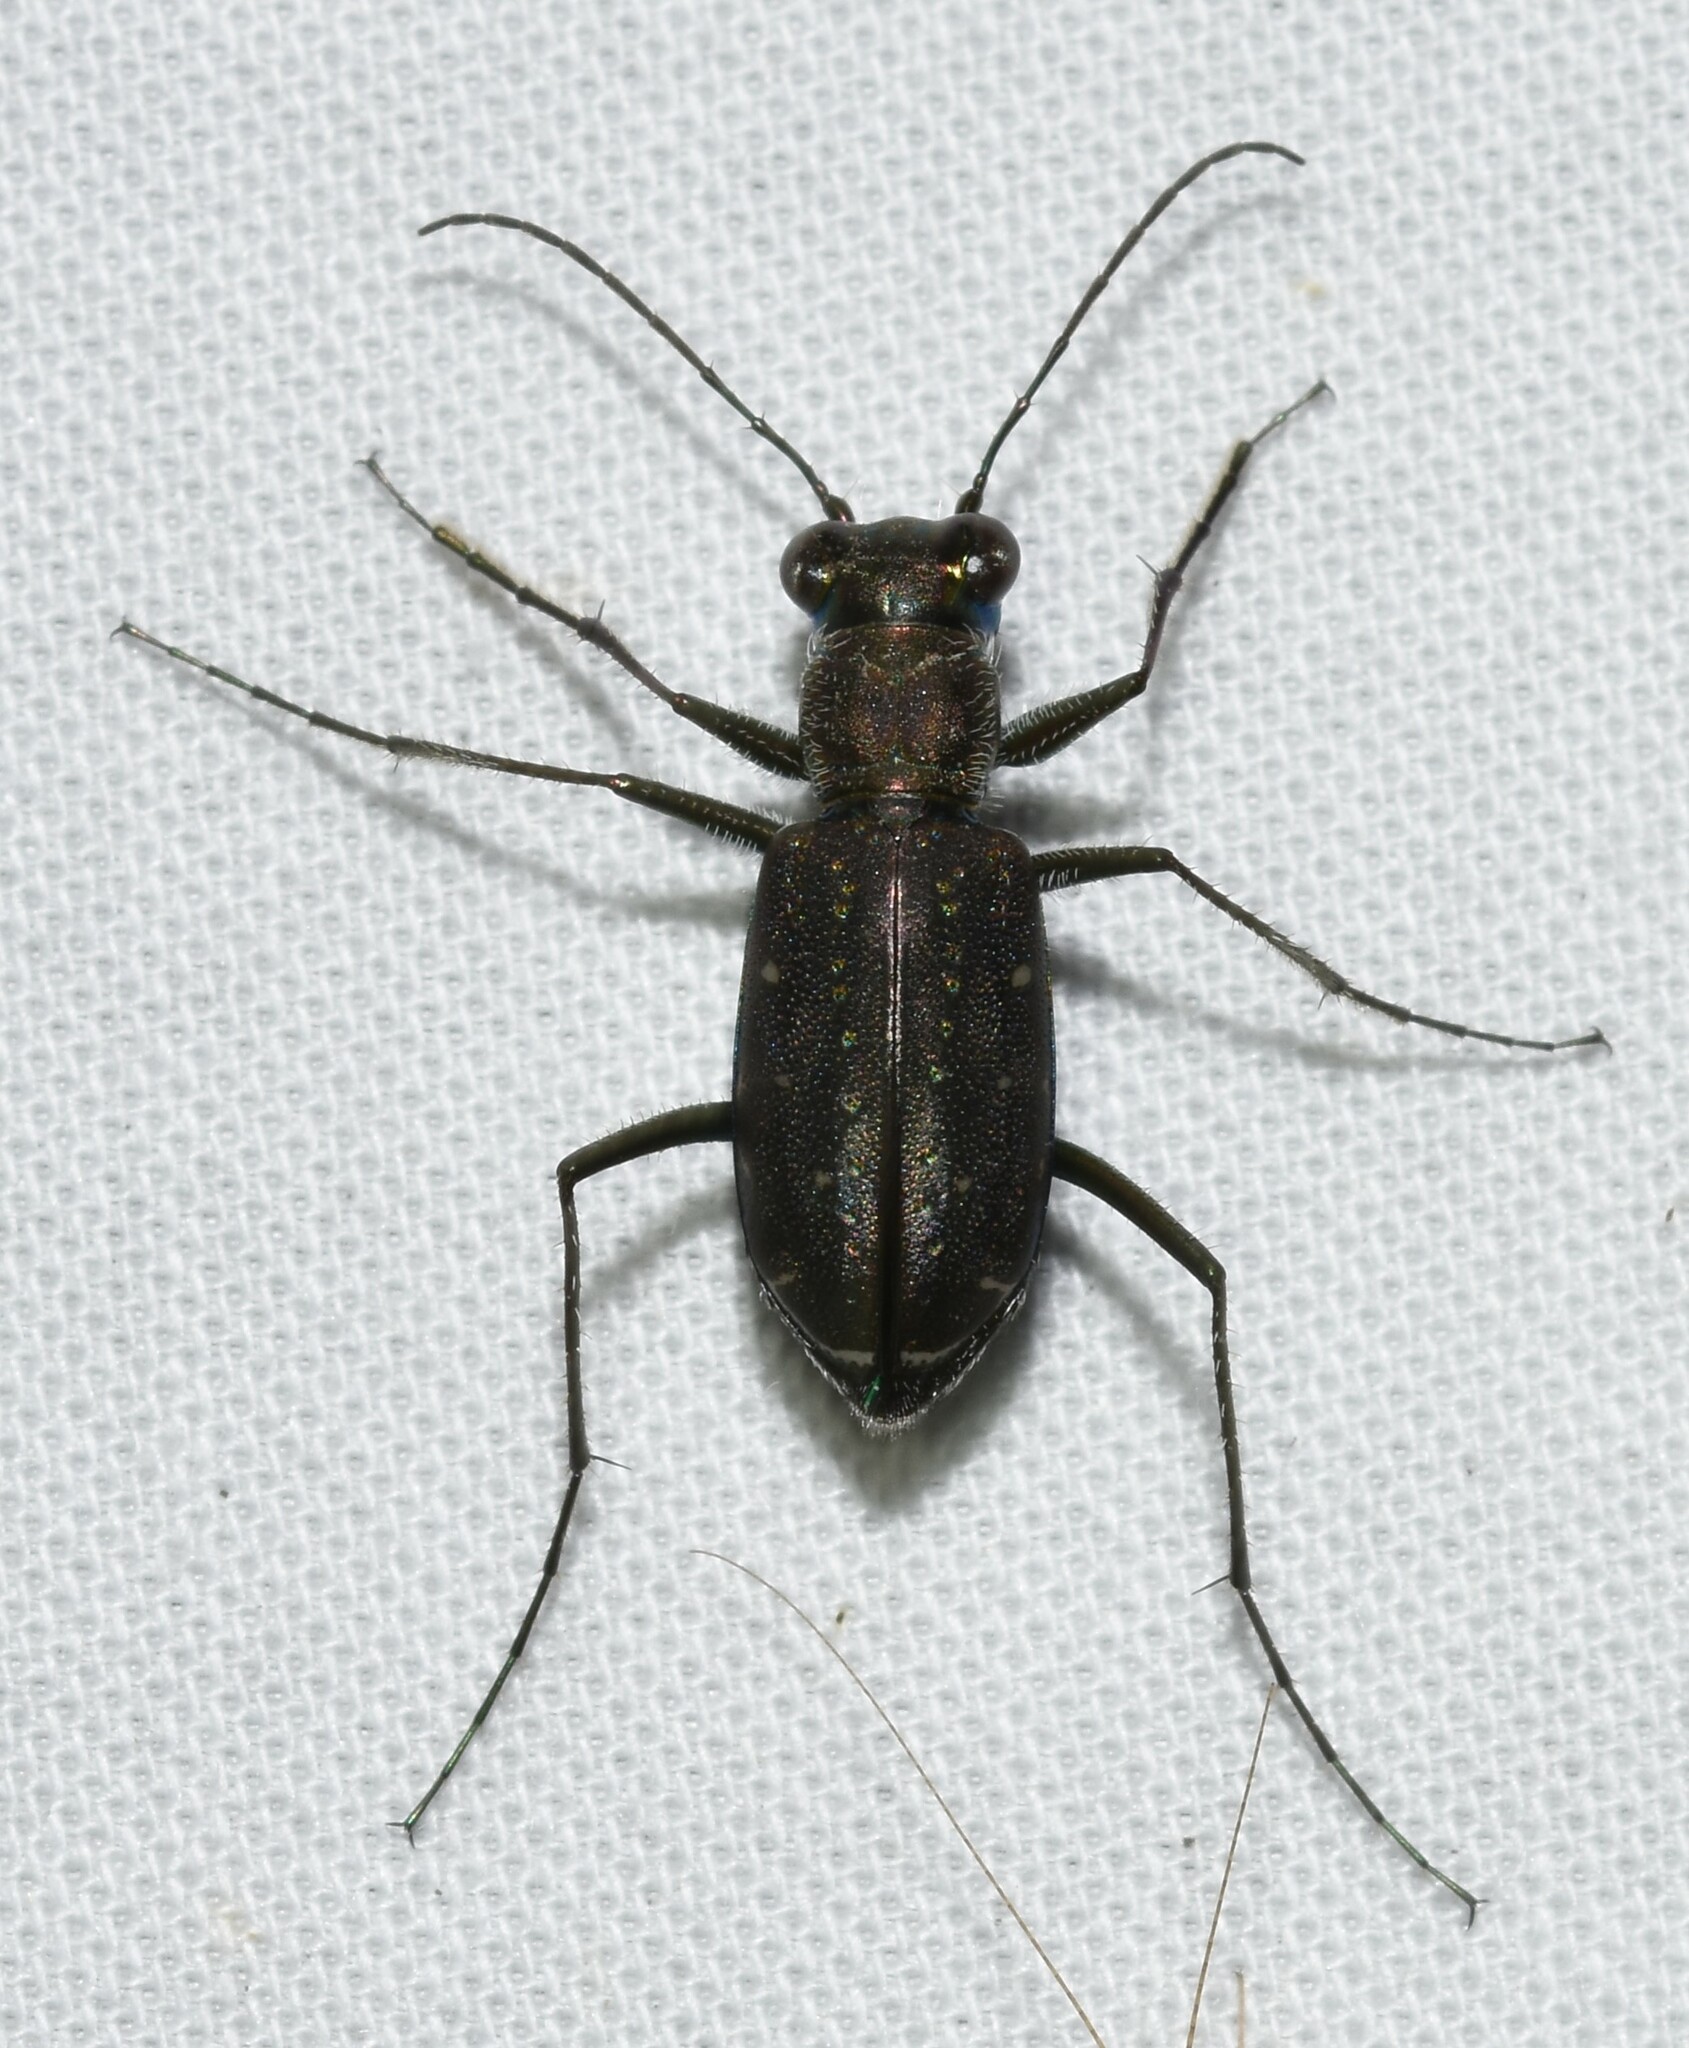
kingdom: Animalia
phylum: Arthropoda
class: Insecta
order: Coleoptera
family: Carabidae
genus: Cicindela
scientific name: Cicindela punctulata
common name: Punctured tiger beetle
